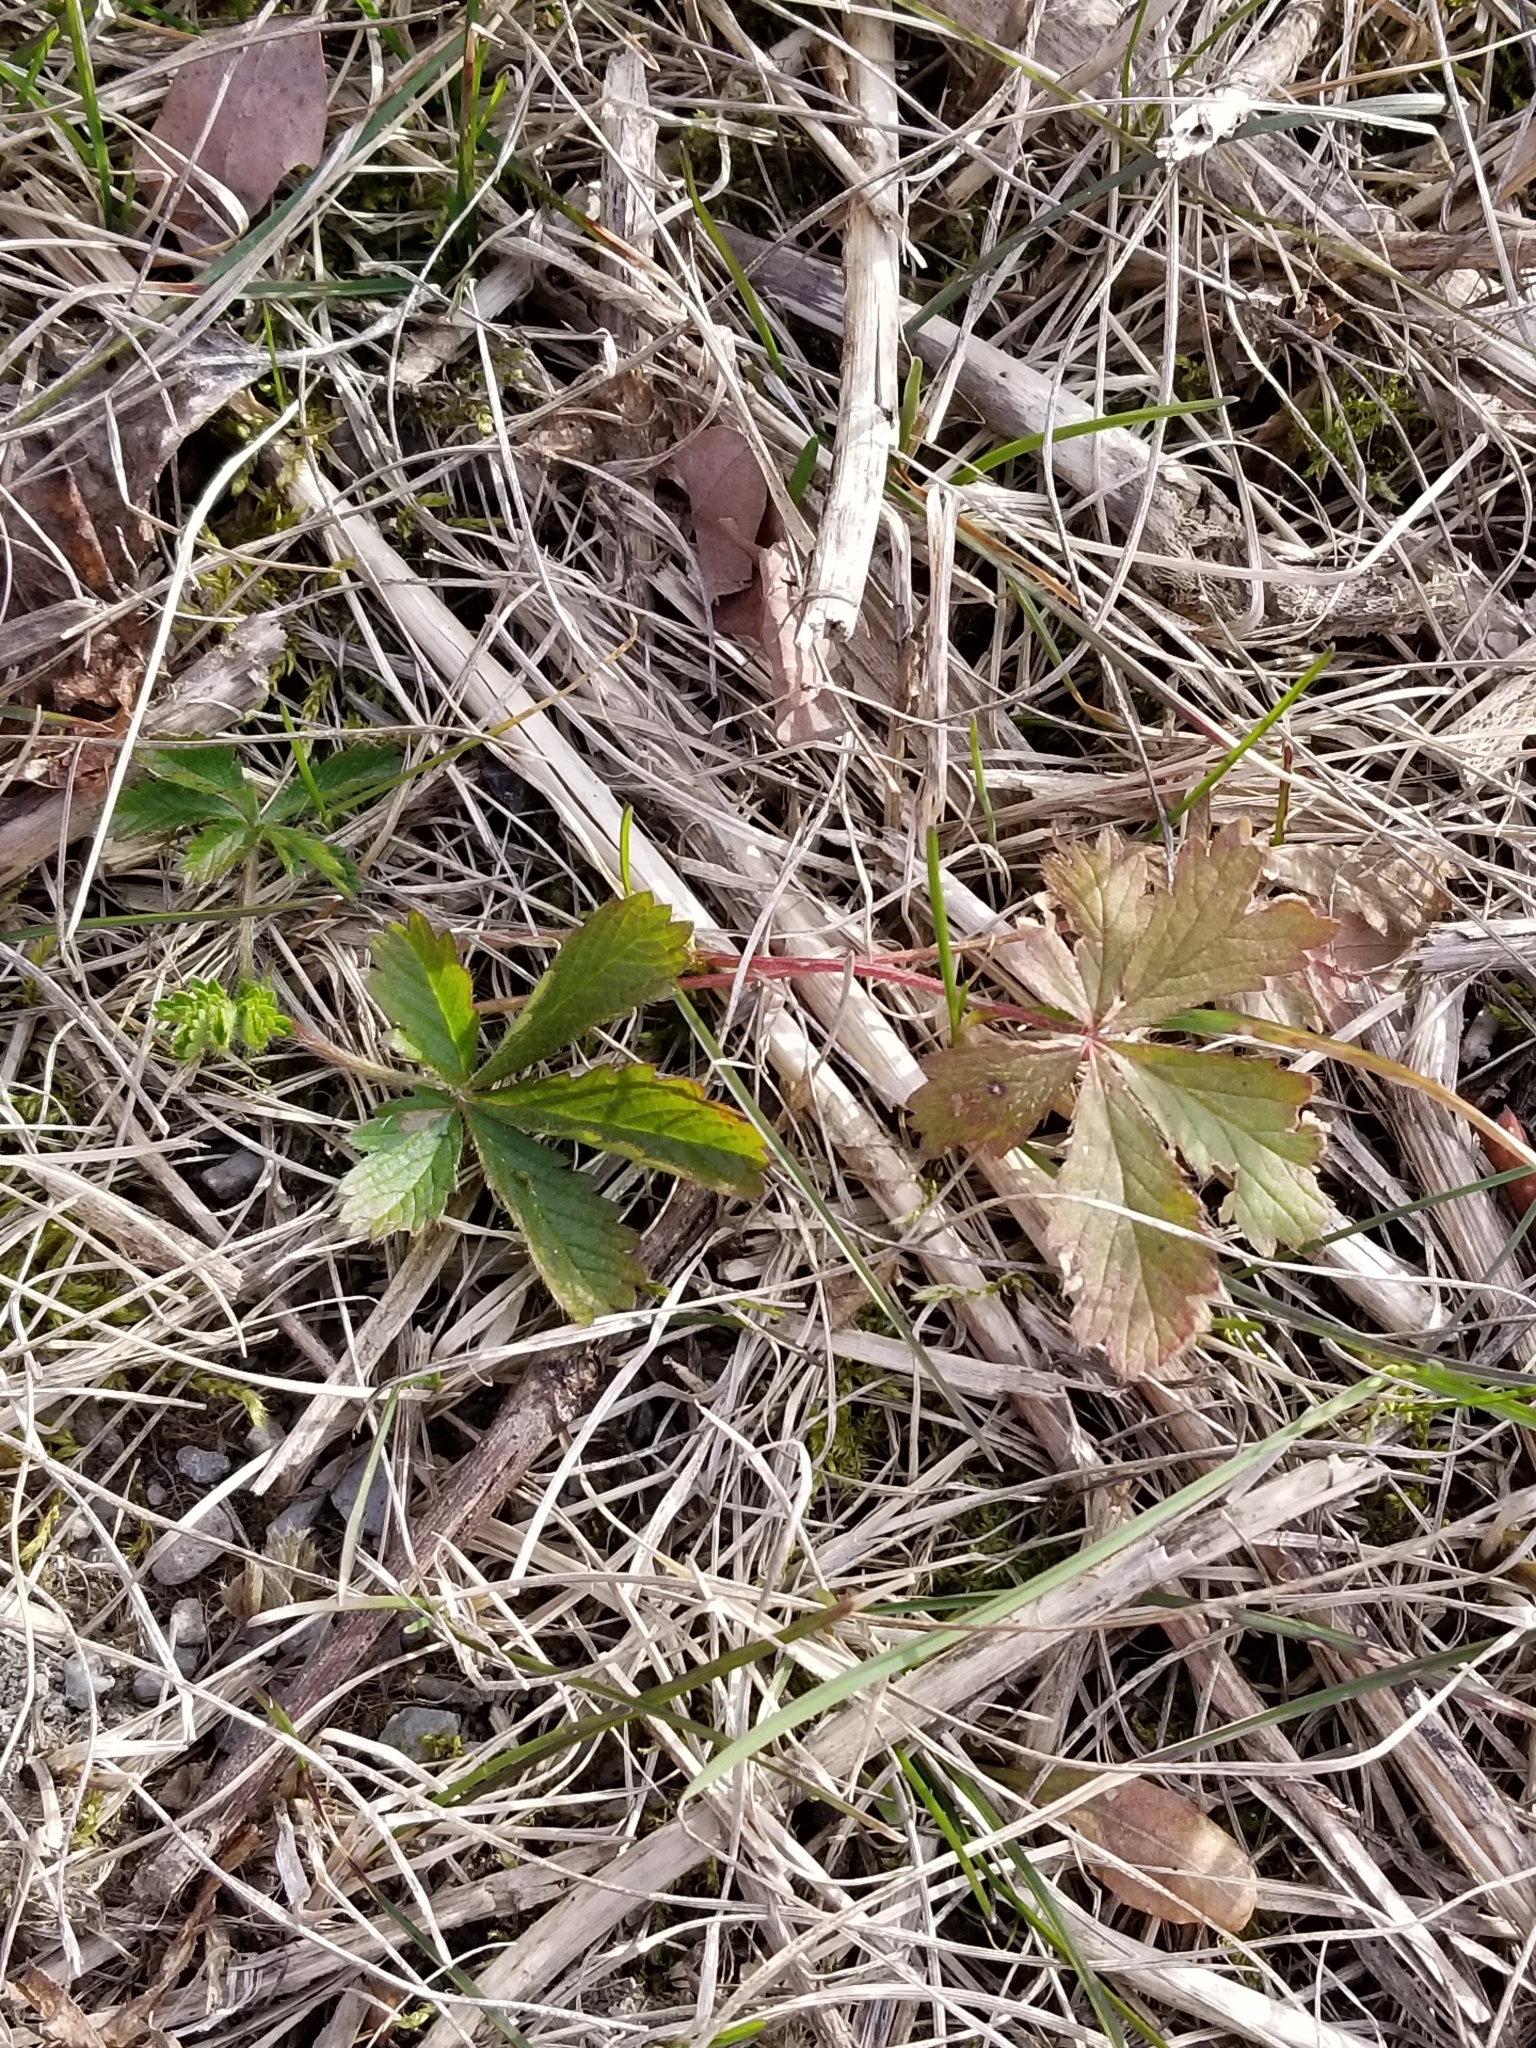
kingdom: Plantae
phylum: Tracheophyta
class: Magnoliopsida
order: Rosales
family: Rosaceae
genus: Potentilla
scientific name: Potentilla recta
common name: Sulphur cinquefoil
